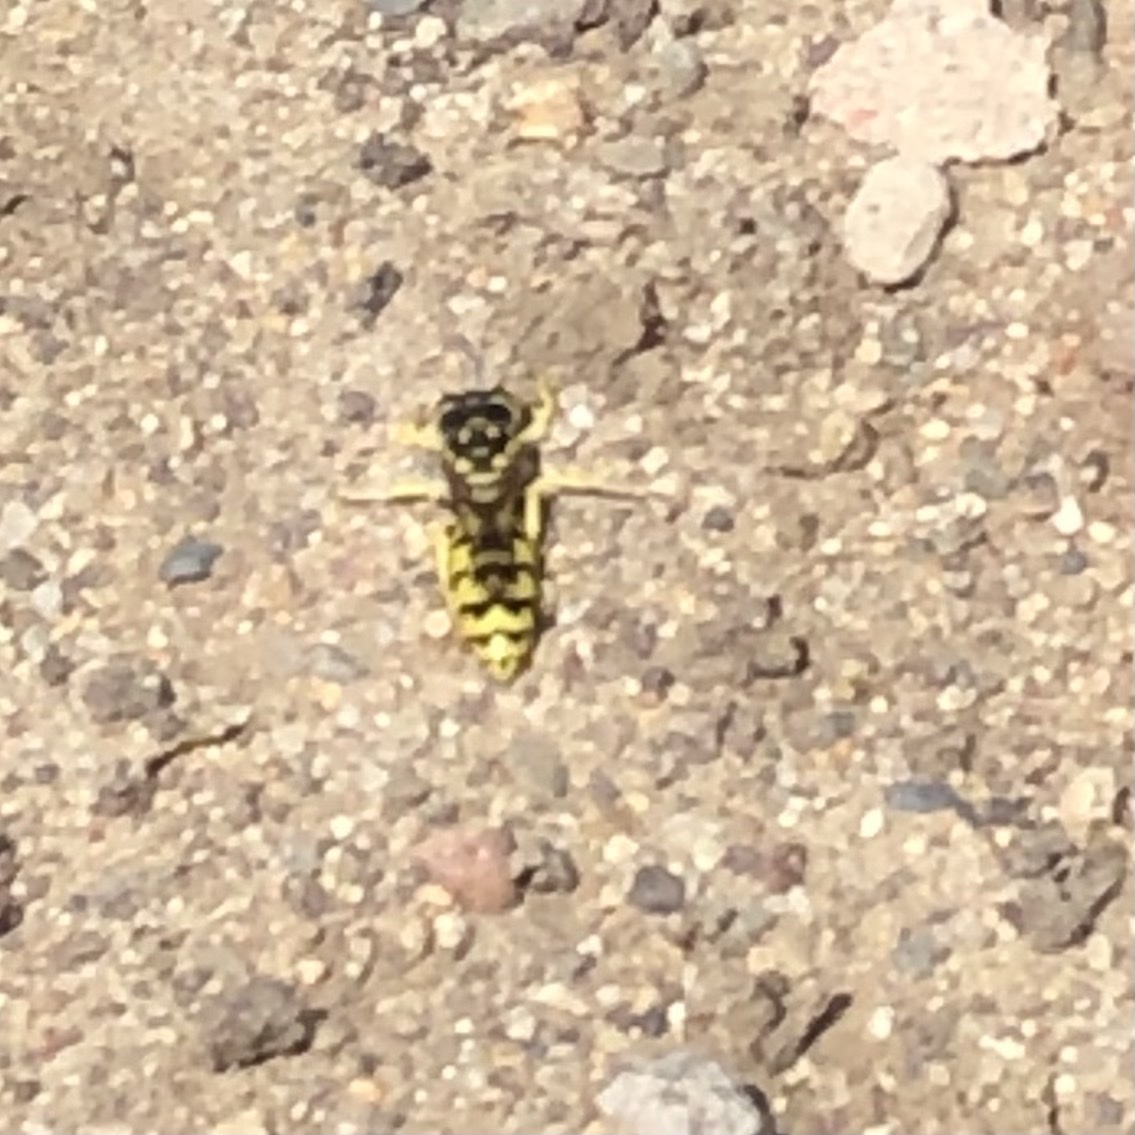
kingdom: Animalia
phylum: Arthropoda
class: Insecta
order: Hymenoptera
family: Crabronidae
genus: Steniolia
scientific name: Steniolia
